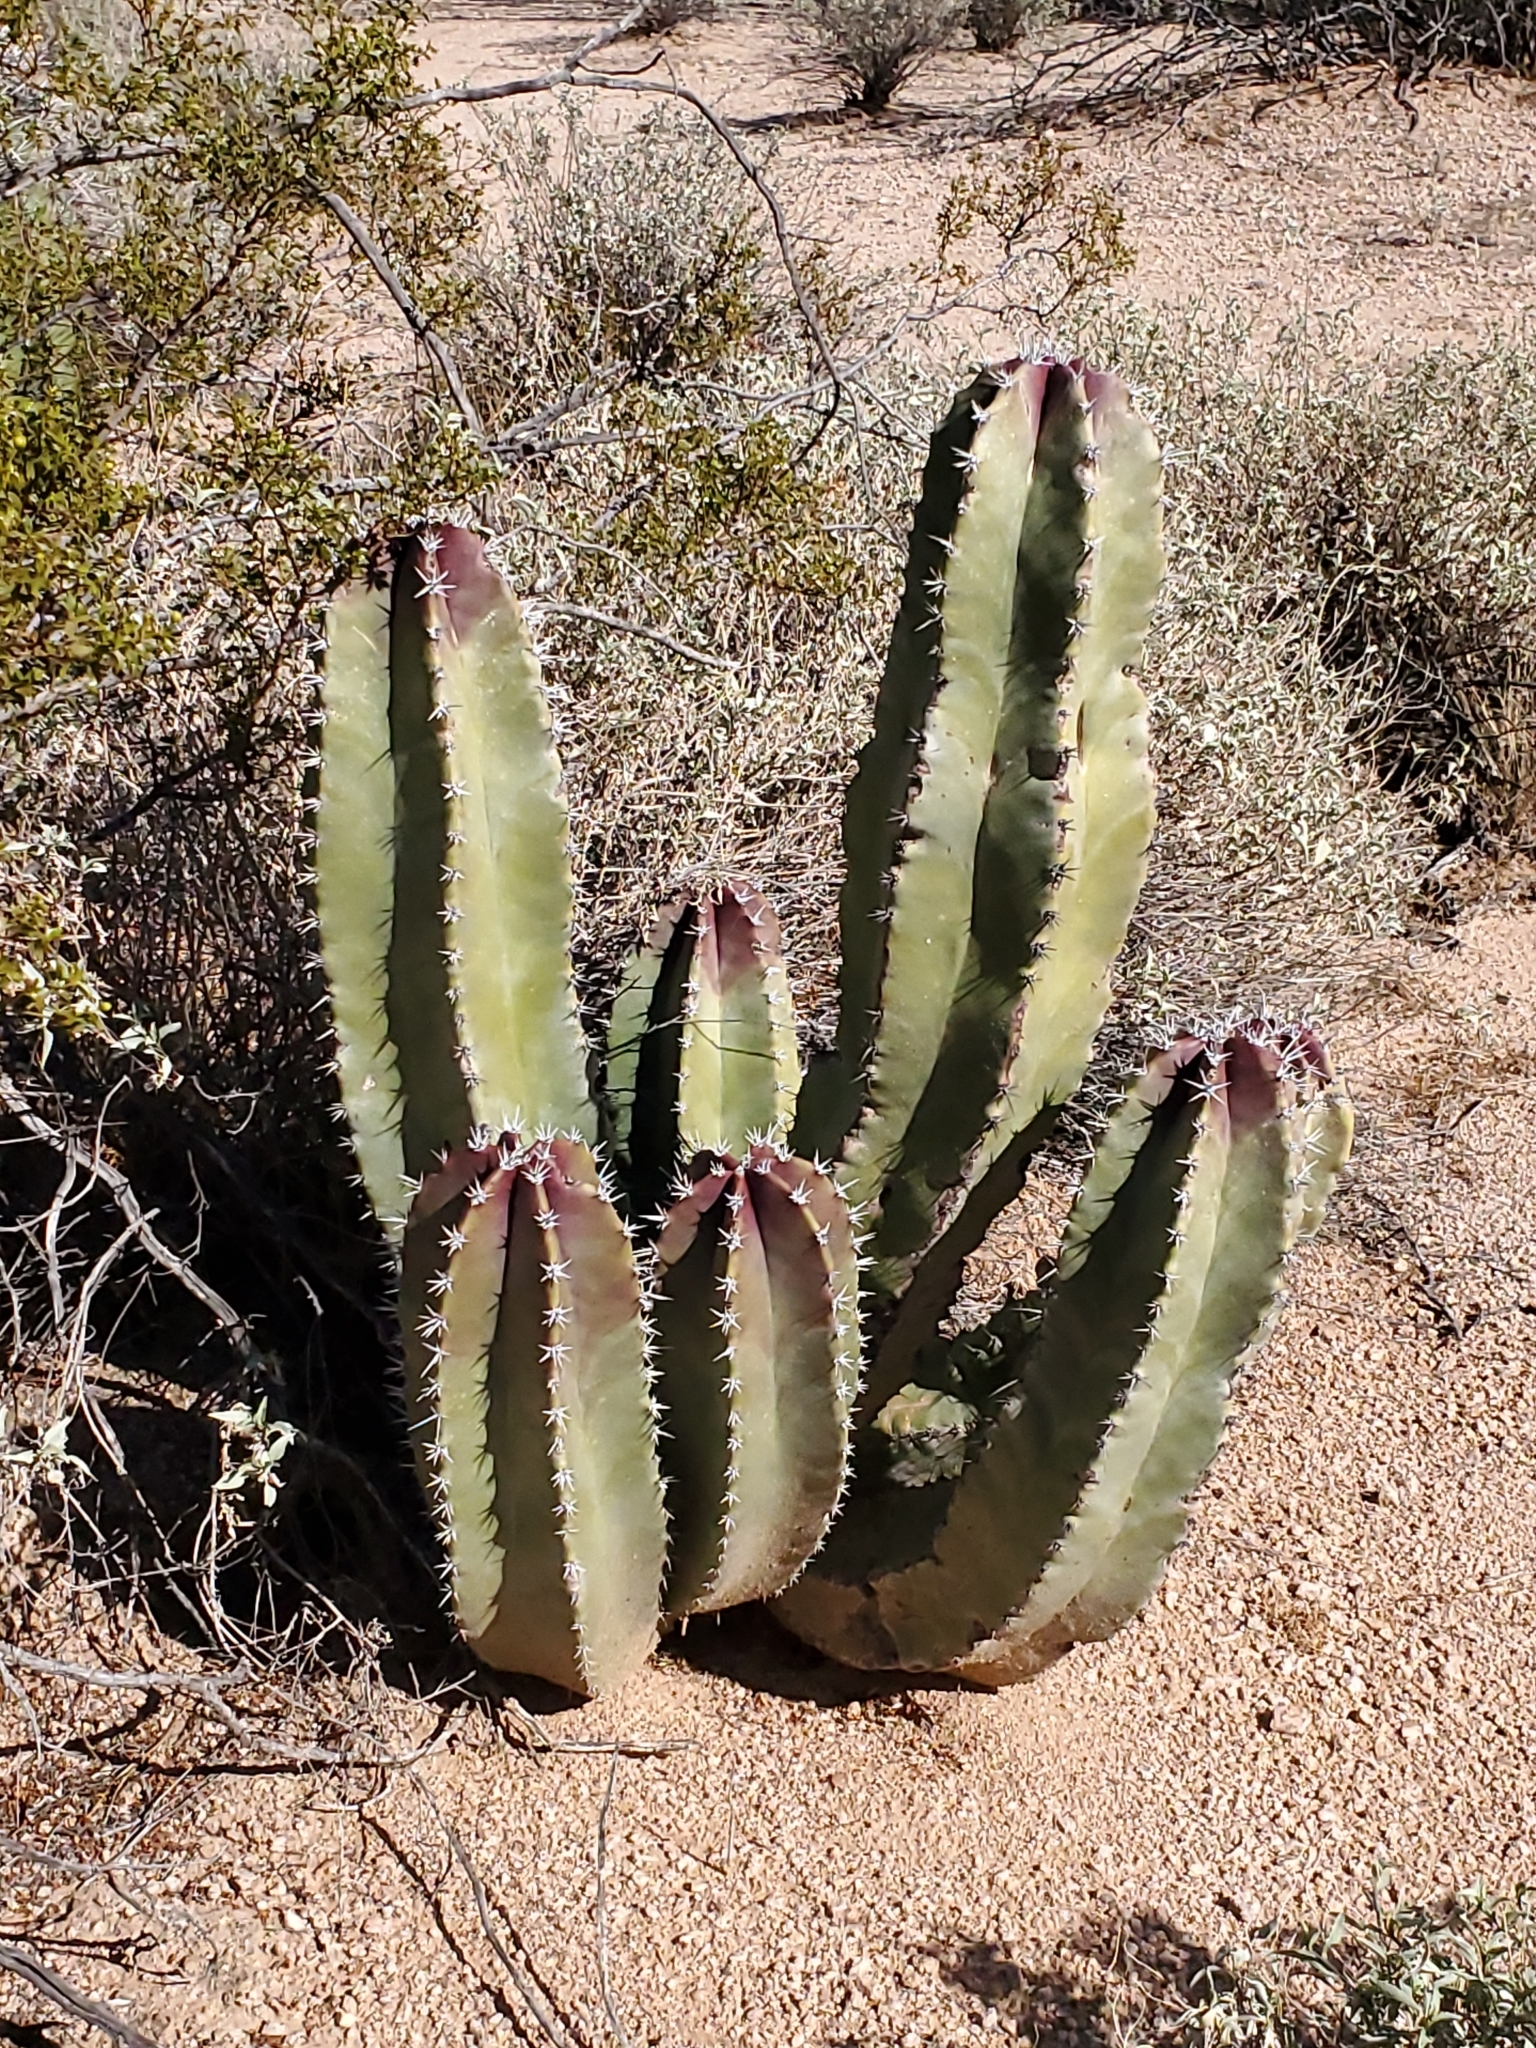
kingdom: Plantae
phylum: Tracheophyta
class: Magnoliopsida
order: Caryophyllales
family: Cactaceae
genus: Pachycereus
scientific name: Pachycereus schottii
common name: Senita cactus
